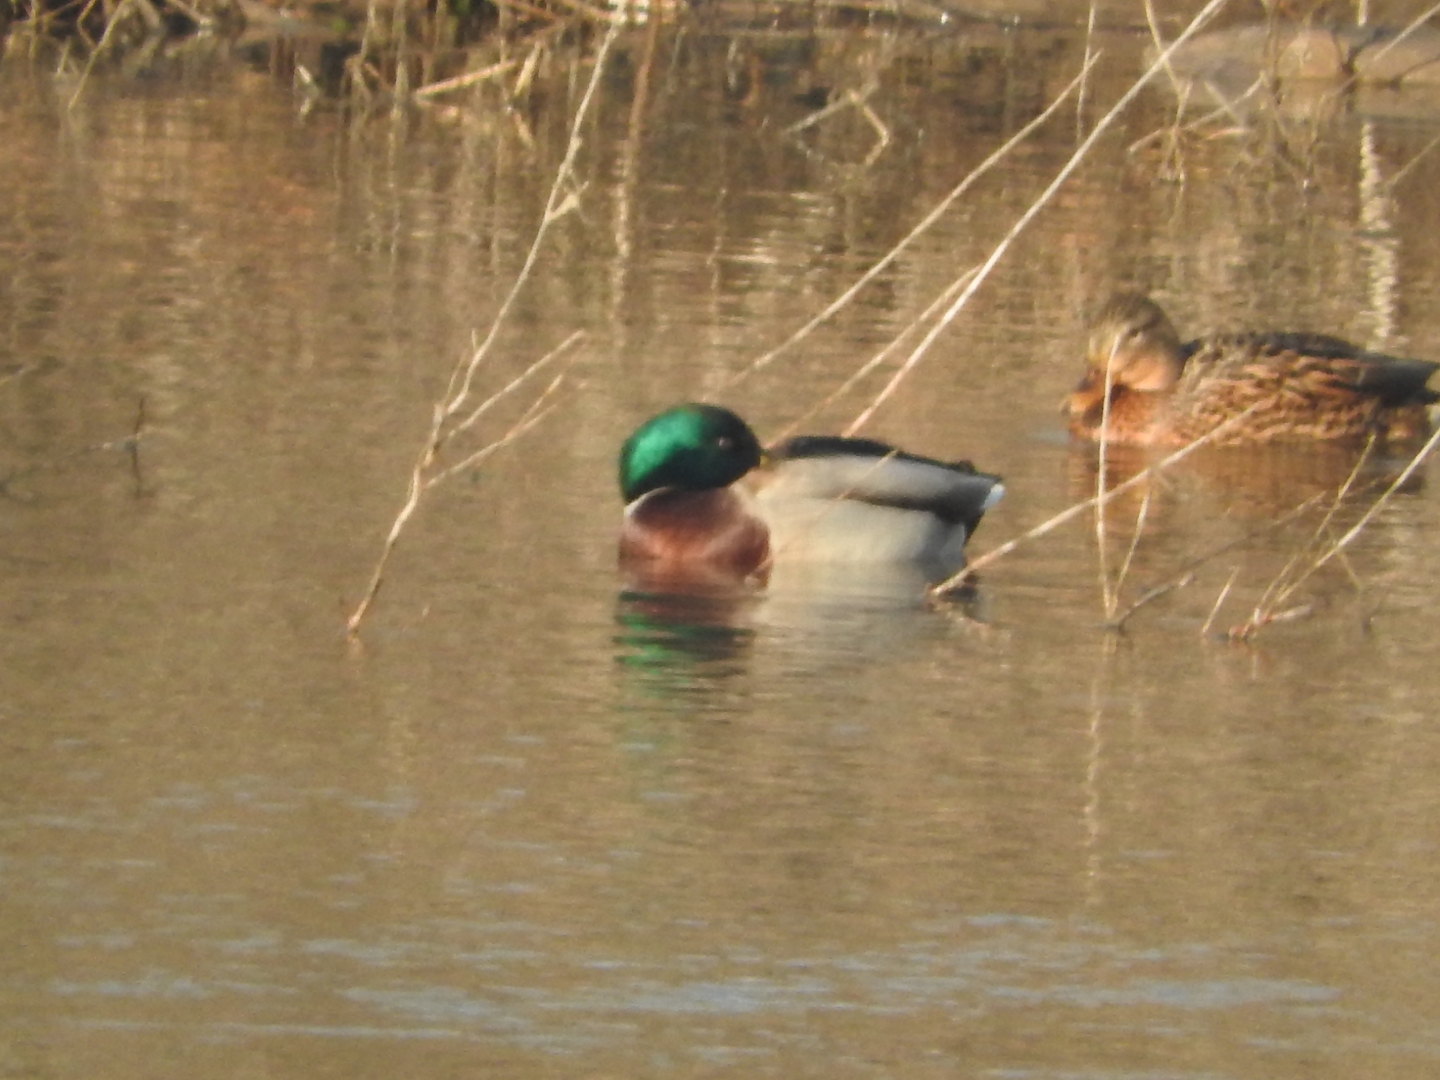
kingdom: Animalia
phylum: Chordata
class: Aves
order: Anseriformes
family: Anatidae
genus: Anas
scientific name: Anas platyrhynchos
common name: Mallard
